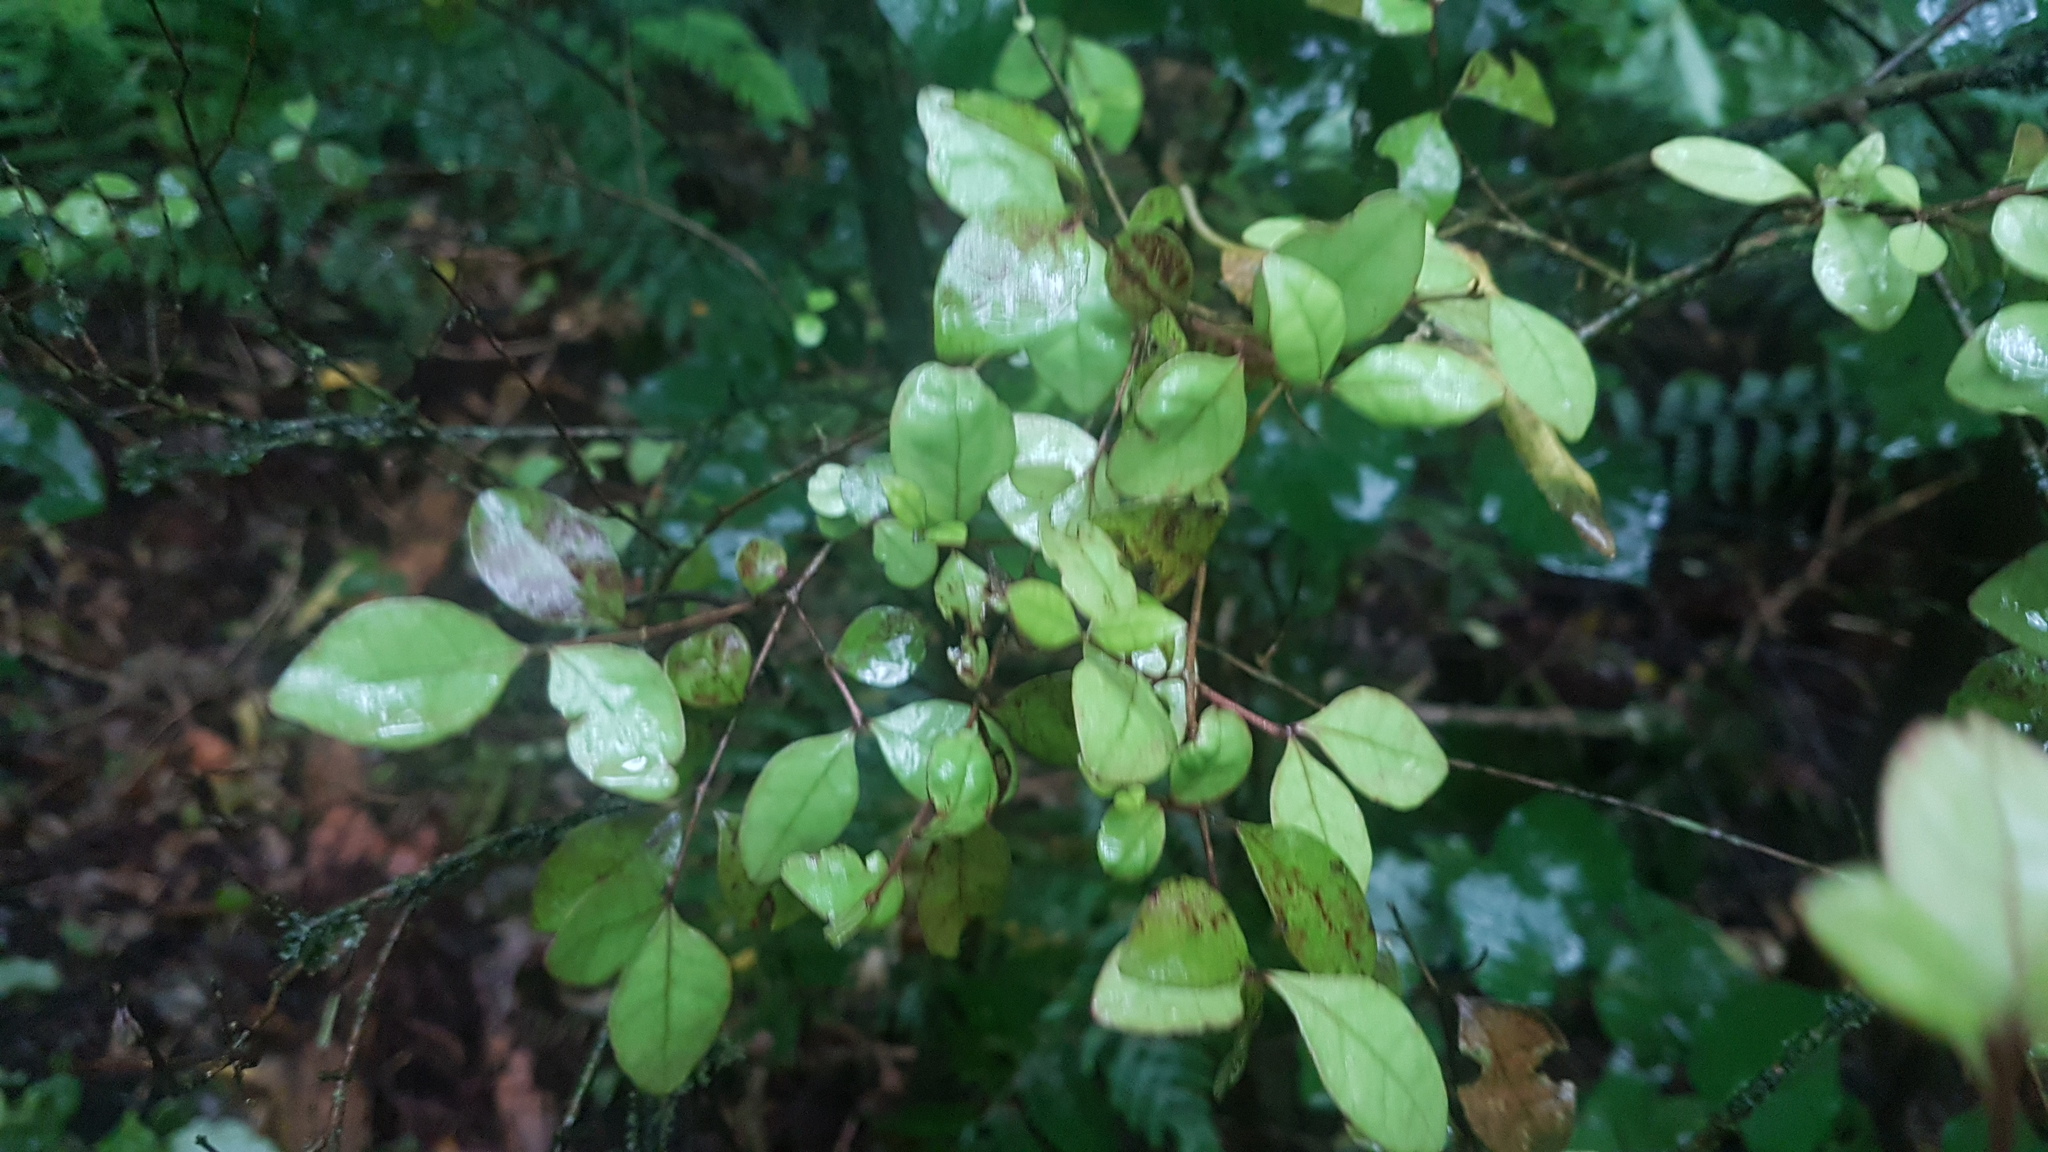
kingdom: Plantae
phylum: Tracheophyta
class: Magnoliopsida
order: Myrtales
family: Myrtaceae
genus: Lophomyrtus
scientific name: Lophomyrtus ralphii
